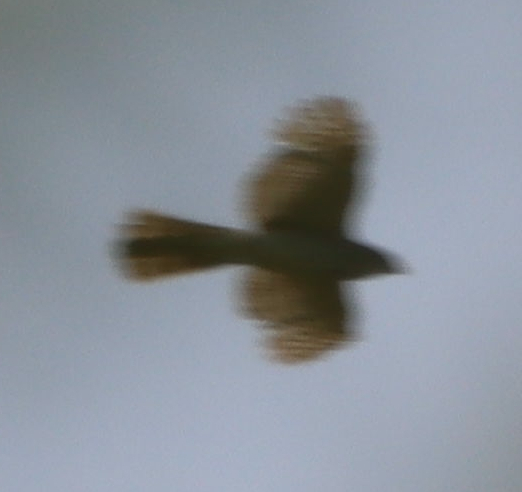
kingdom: Animalia
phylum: Chordata
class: Aves
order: Accipitriformes
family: Accipitridae
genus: Accipiter
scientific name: Accipiter cooperii
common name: Cooper's hawk
